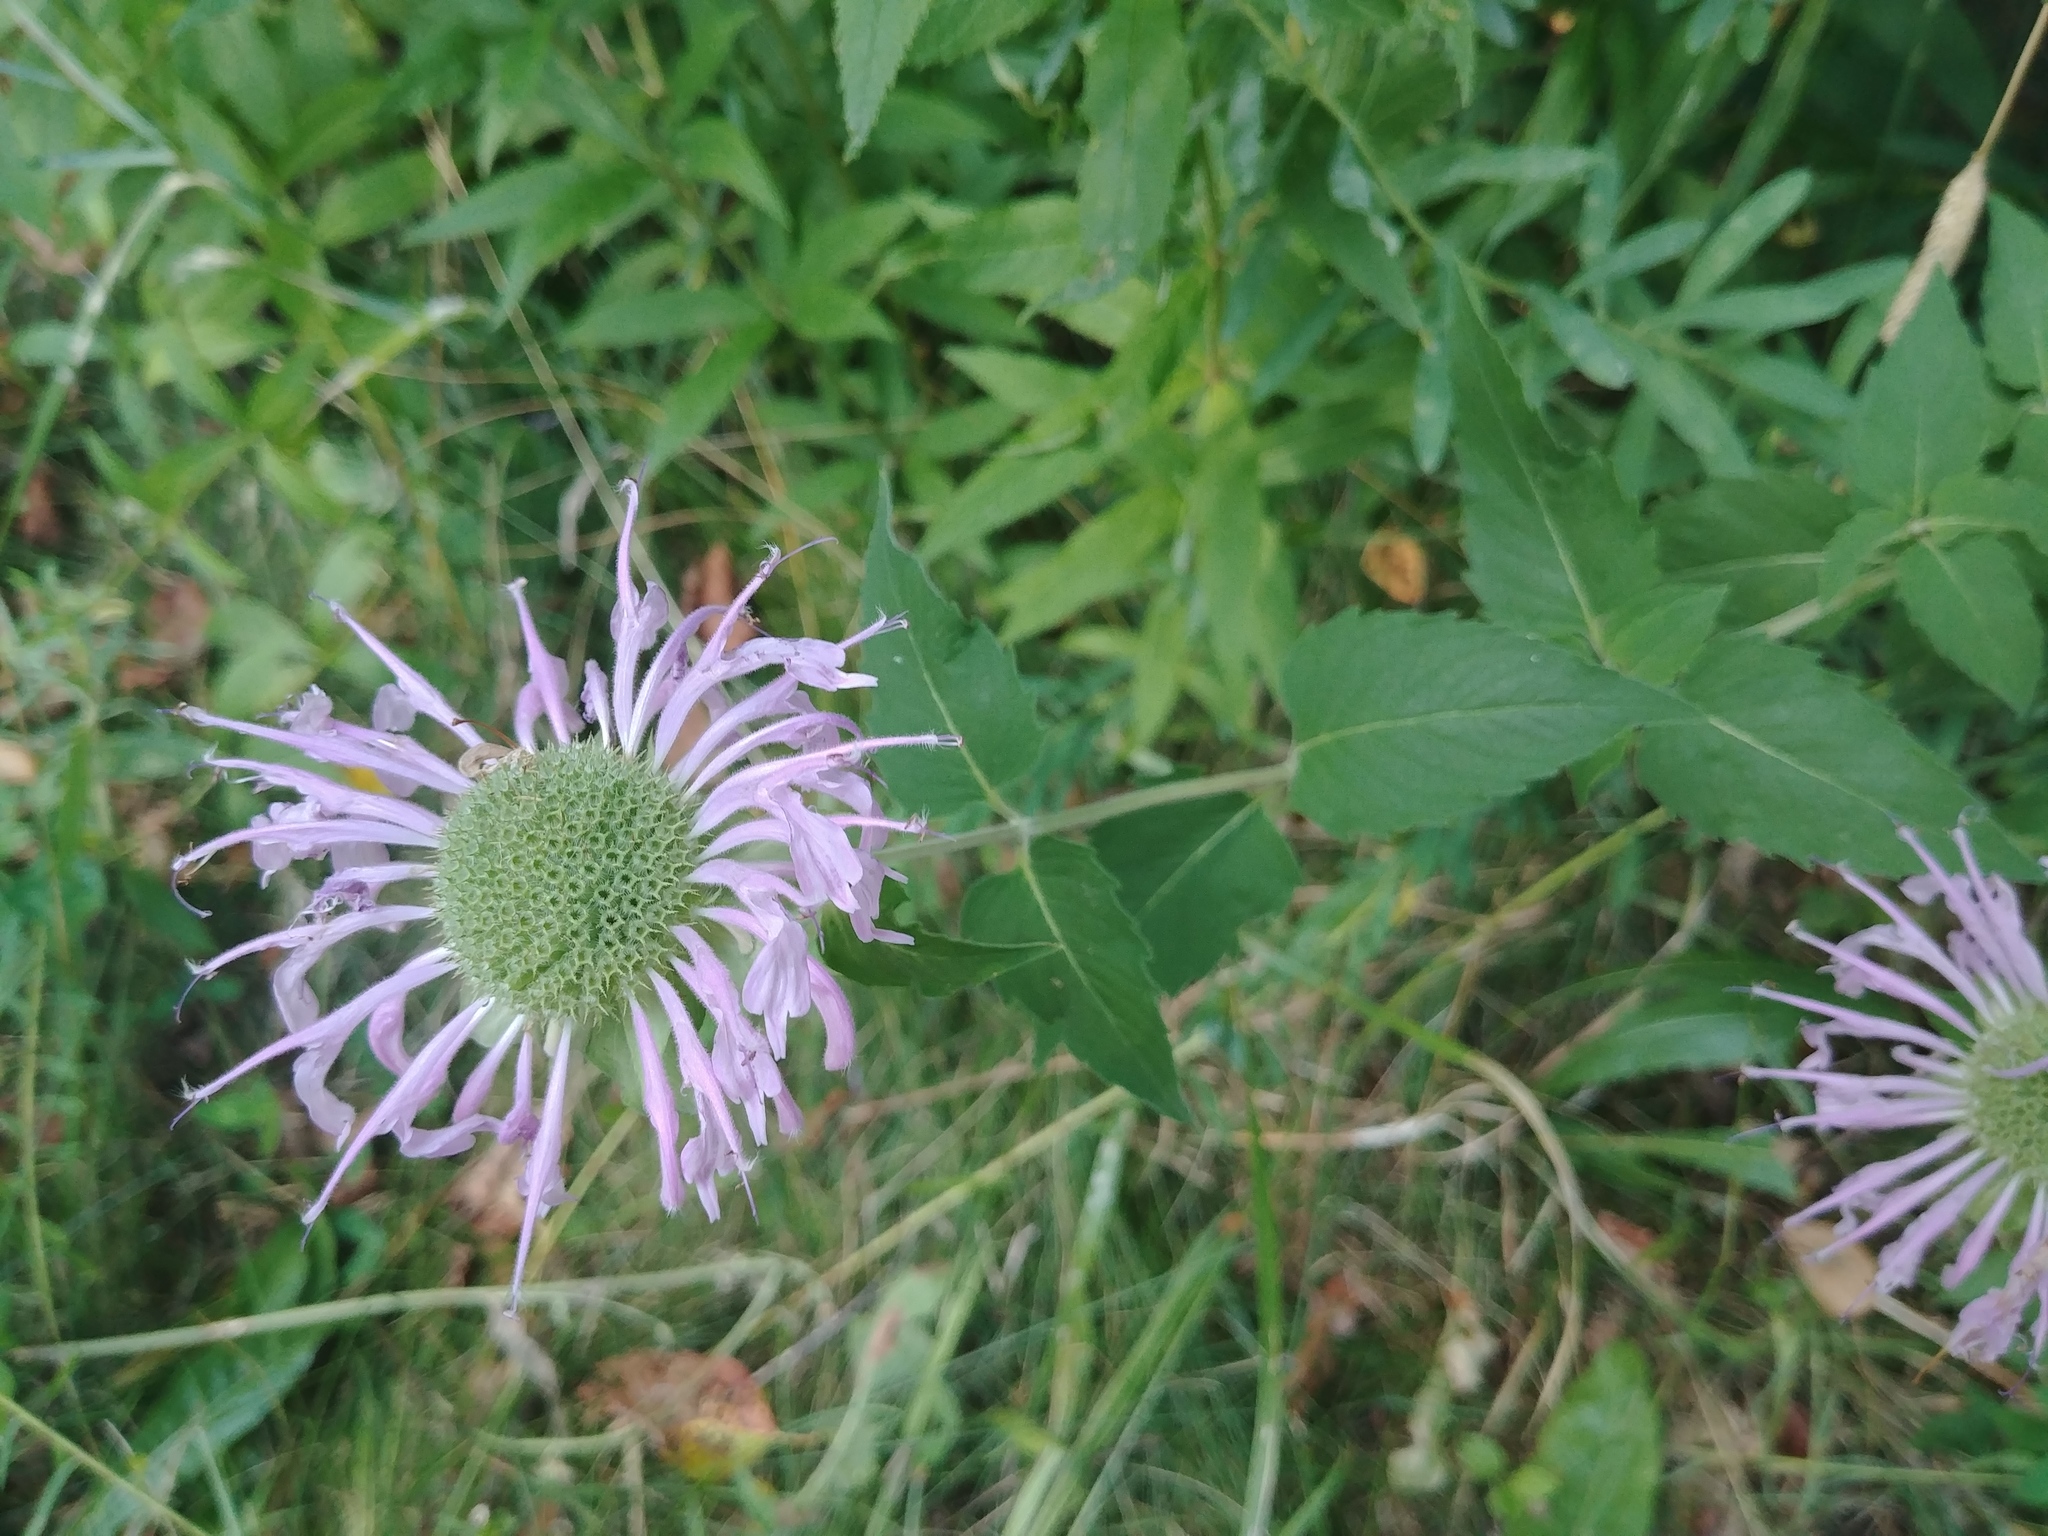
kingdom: Plantae
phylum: Tracheophyta
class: Magnoliopsida
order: Lamiales
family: Lamiaceae
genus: Monarda
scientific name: Monarda fistulosa
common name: Purple beebalm
